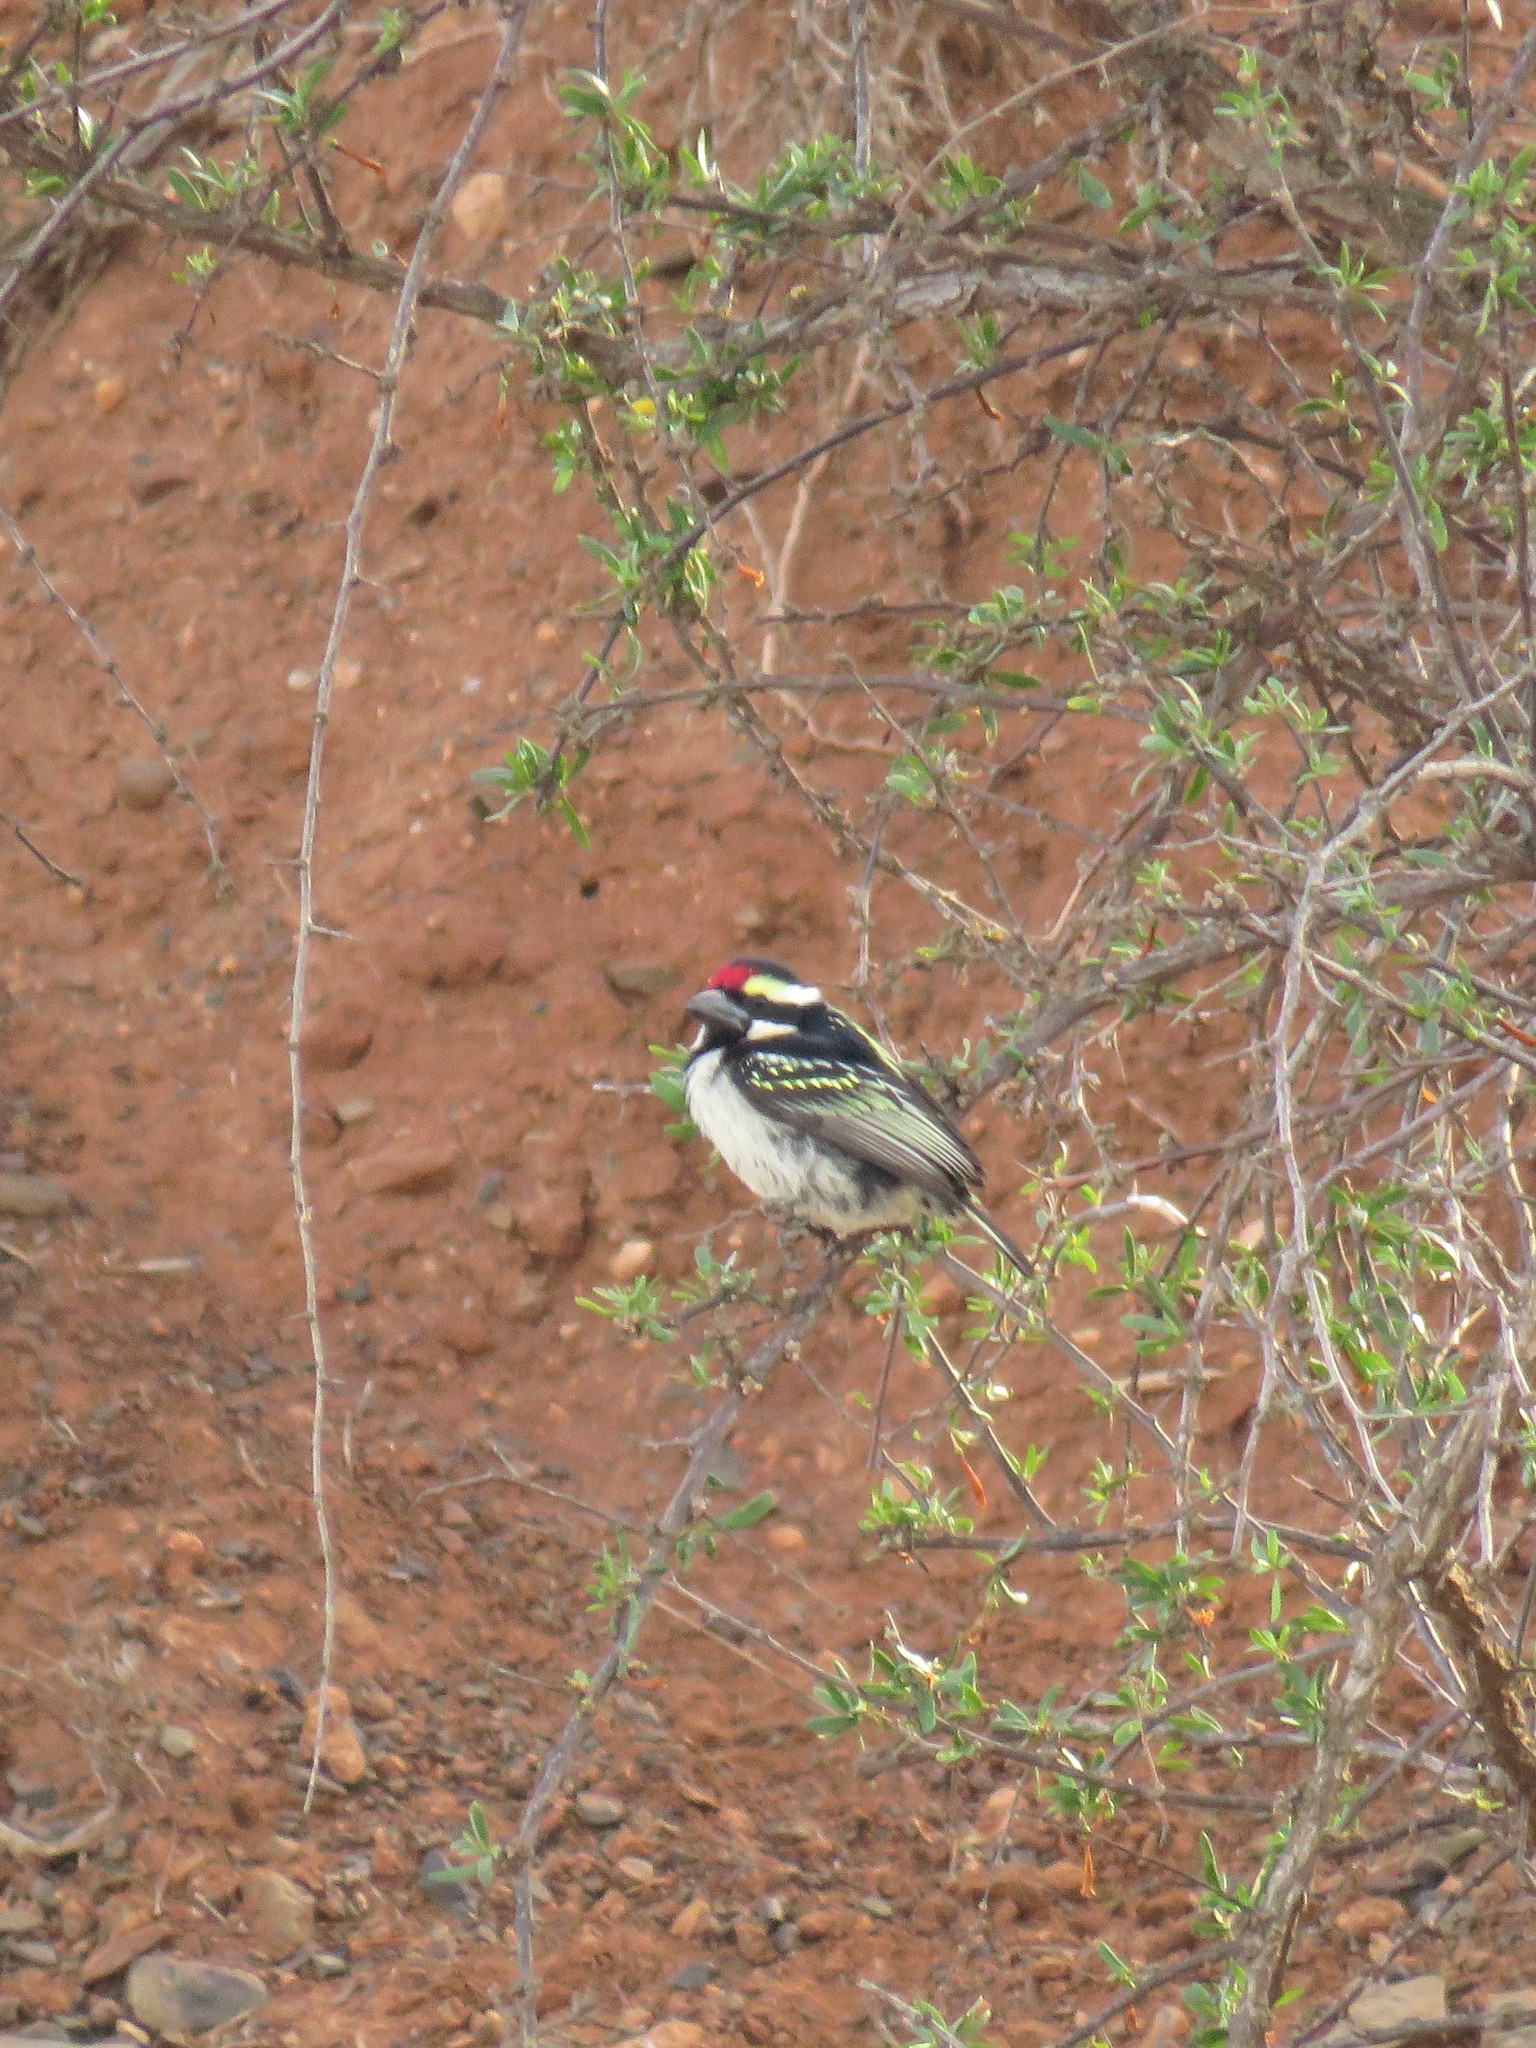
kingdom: Animalia
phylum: Chordata
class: Aves
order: Piciformes
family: Lybiidae
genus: Tricholaema
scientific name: Tricholaema leucomelas
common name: Acacia pied barbet
